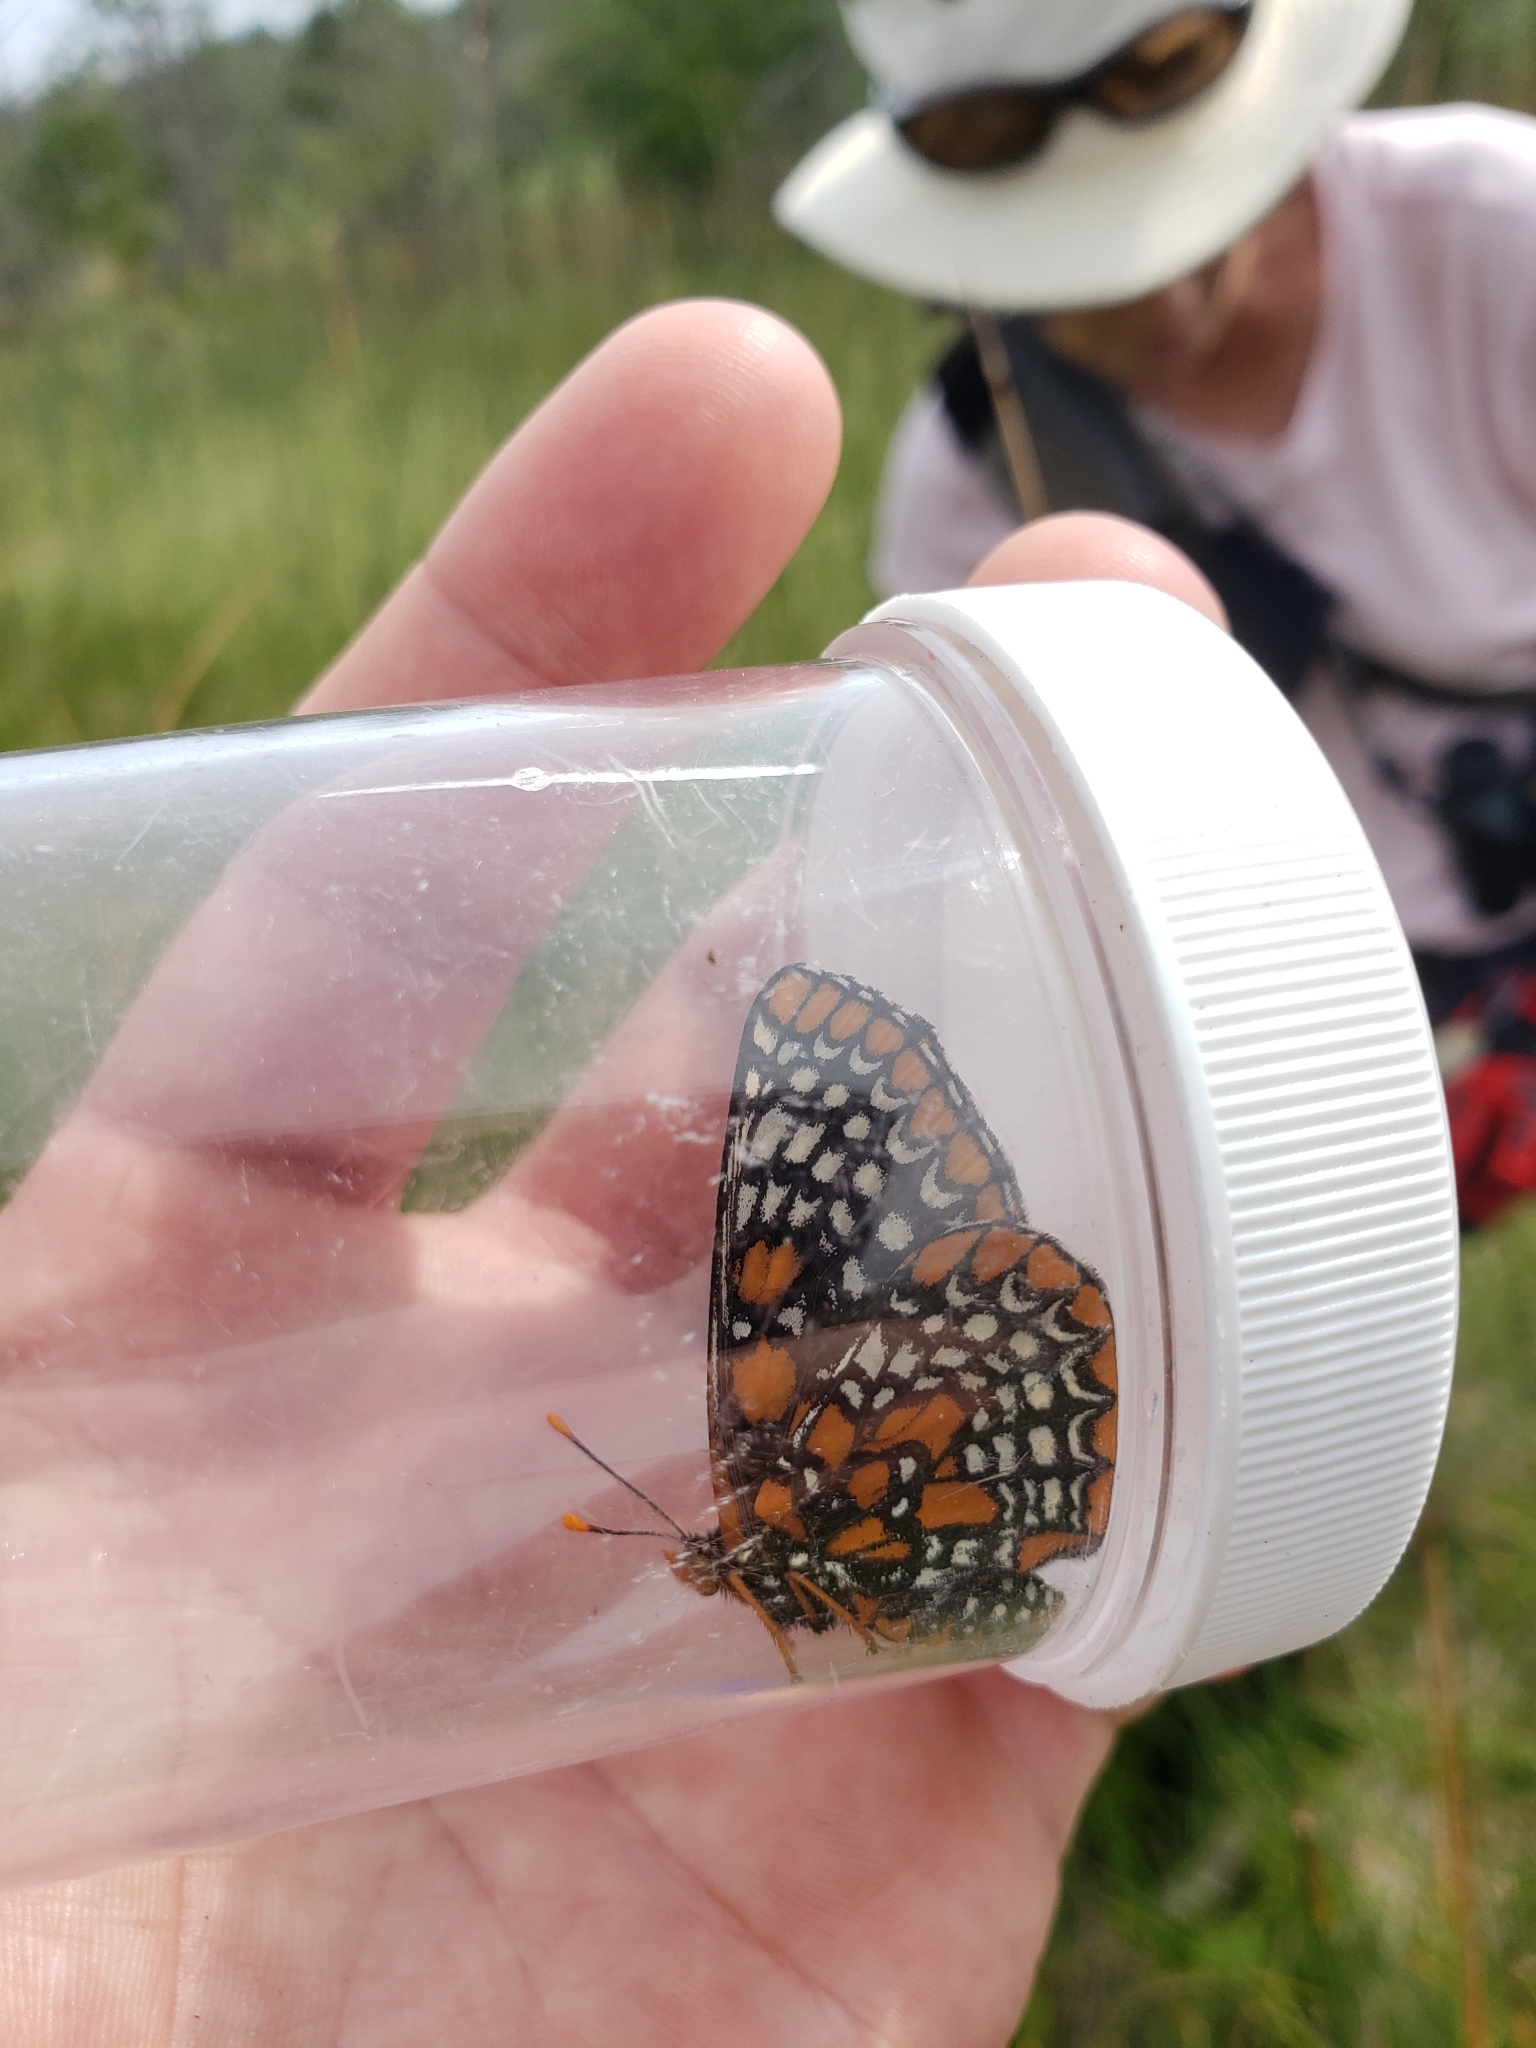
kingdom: Animalia
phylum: Arthropoda
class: Insecta
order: Lepidoptera
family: Nymphalidae
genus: Euphydryas
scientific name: Euphydryas phaeton
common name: Baltimore checkerspot
